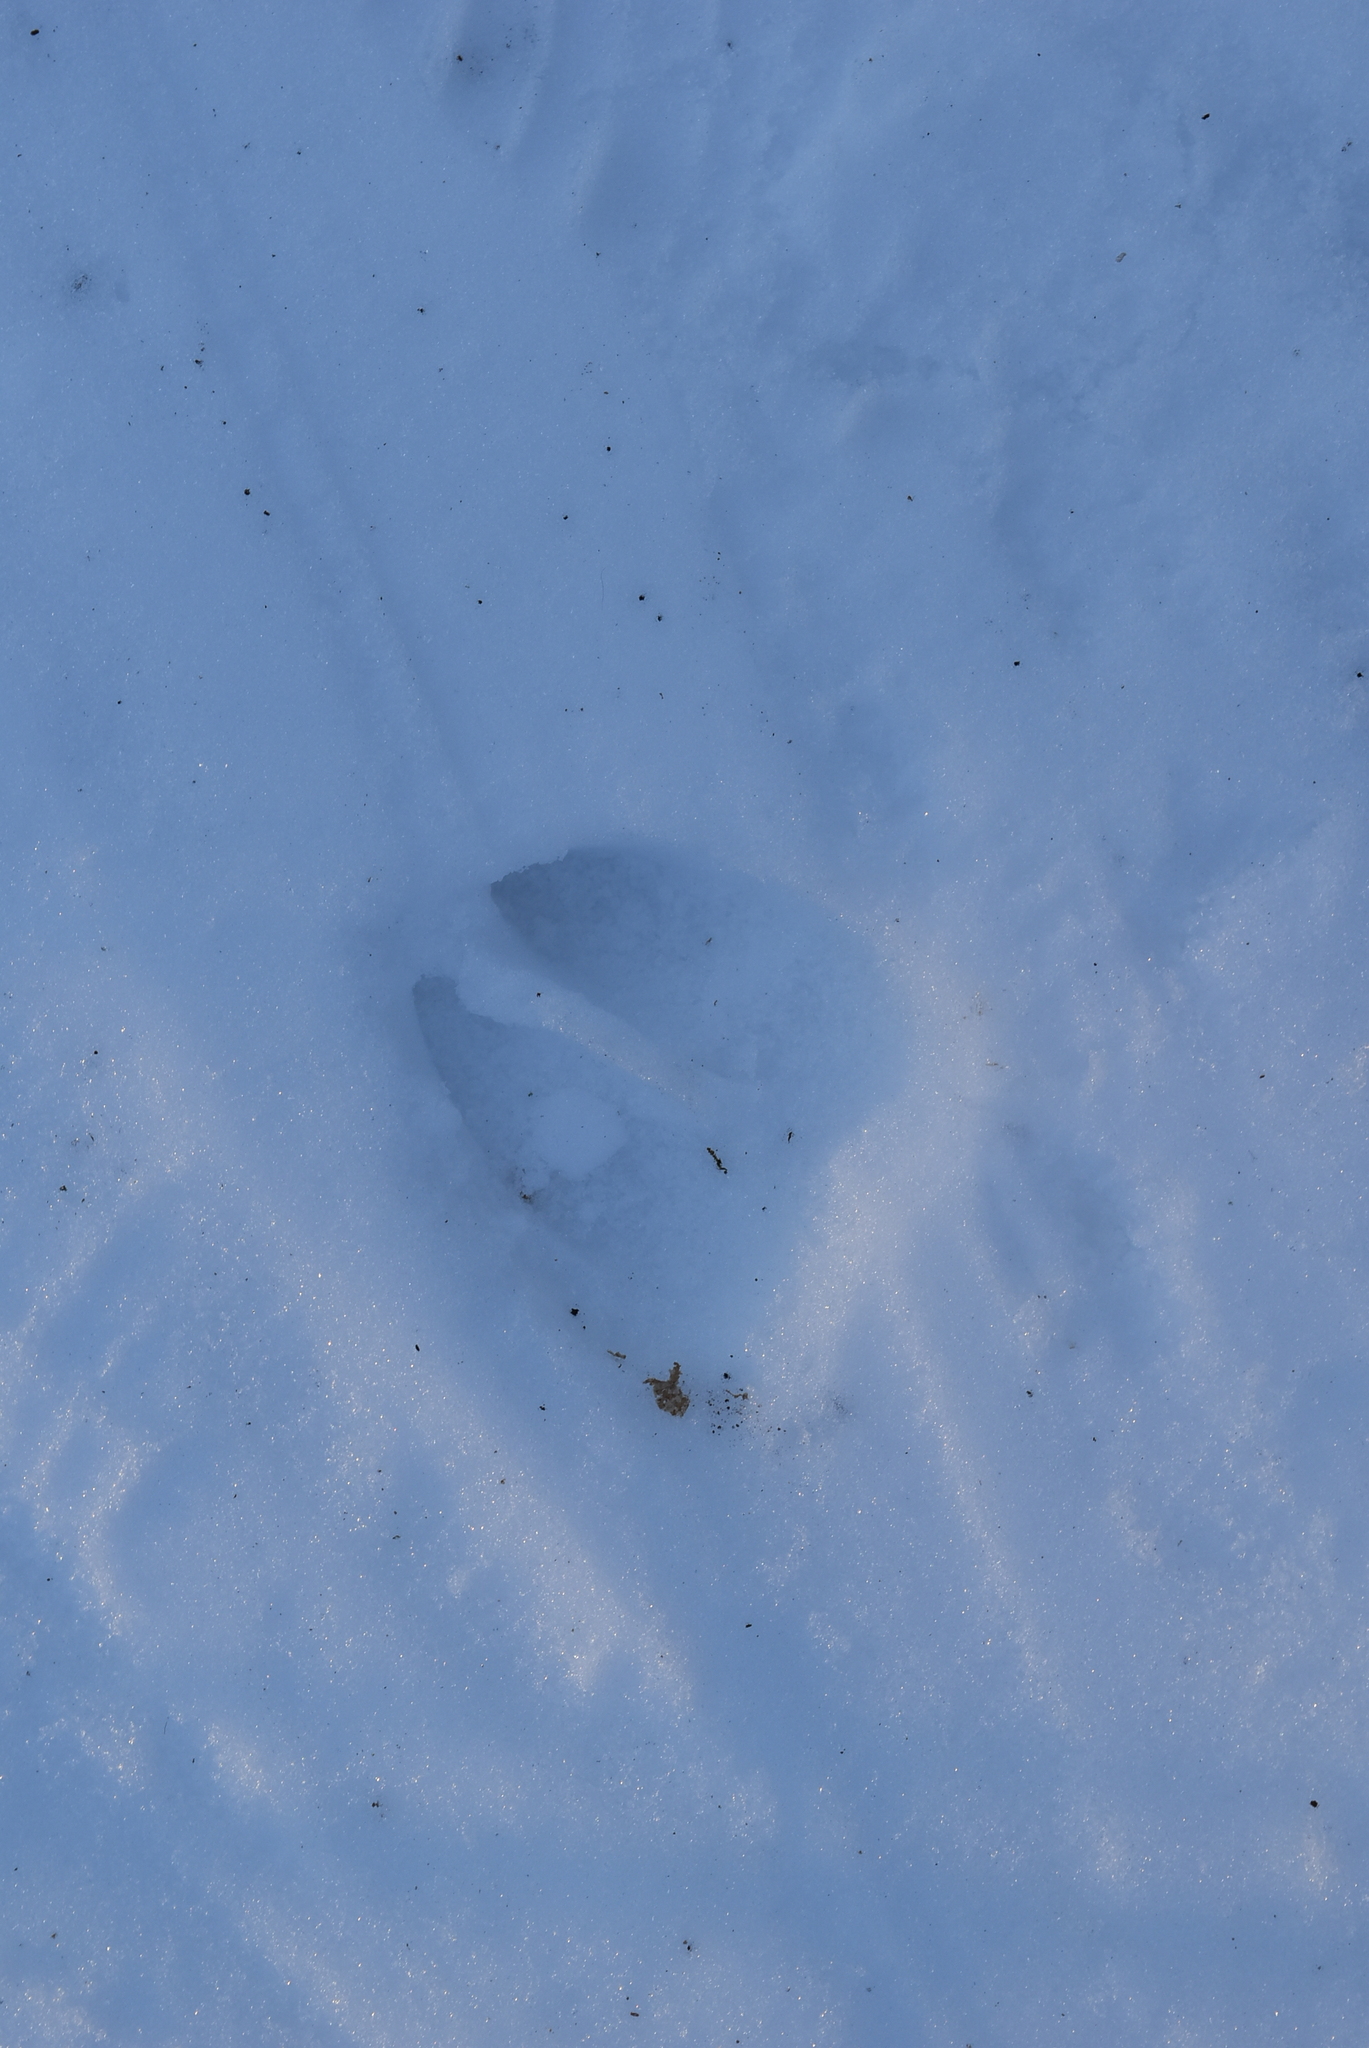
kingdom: Animalia
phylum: Chordata
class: Mammalia
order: Artiodactyla
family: Cervidae
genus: Odocoileus
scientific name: Odocoileus virginianus
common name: White-tailed deer
